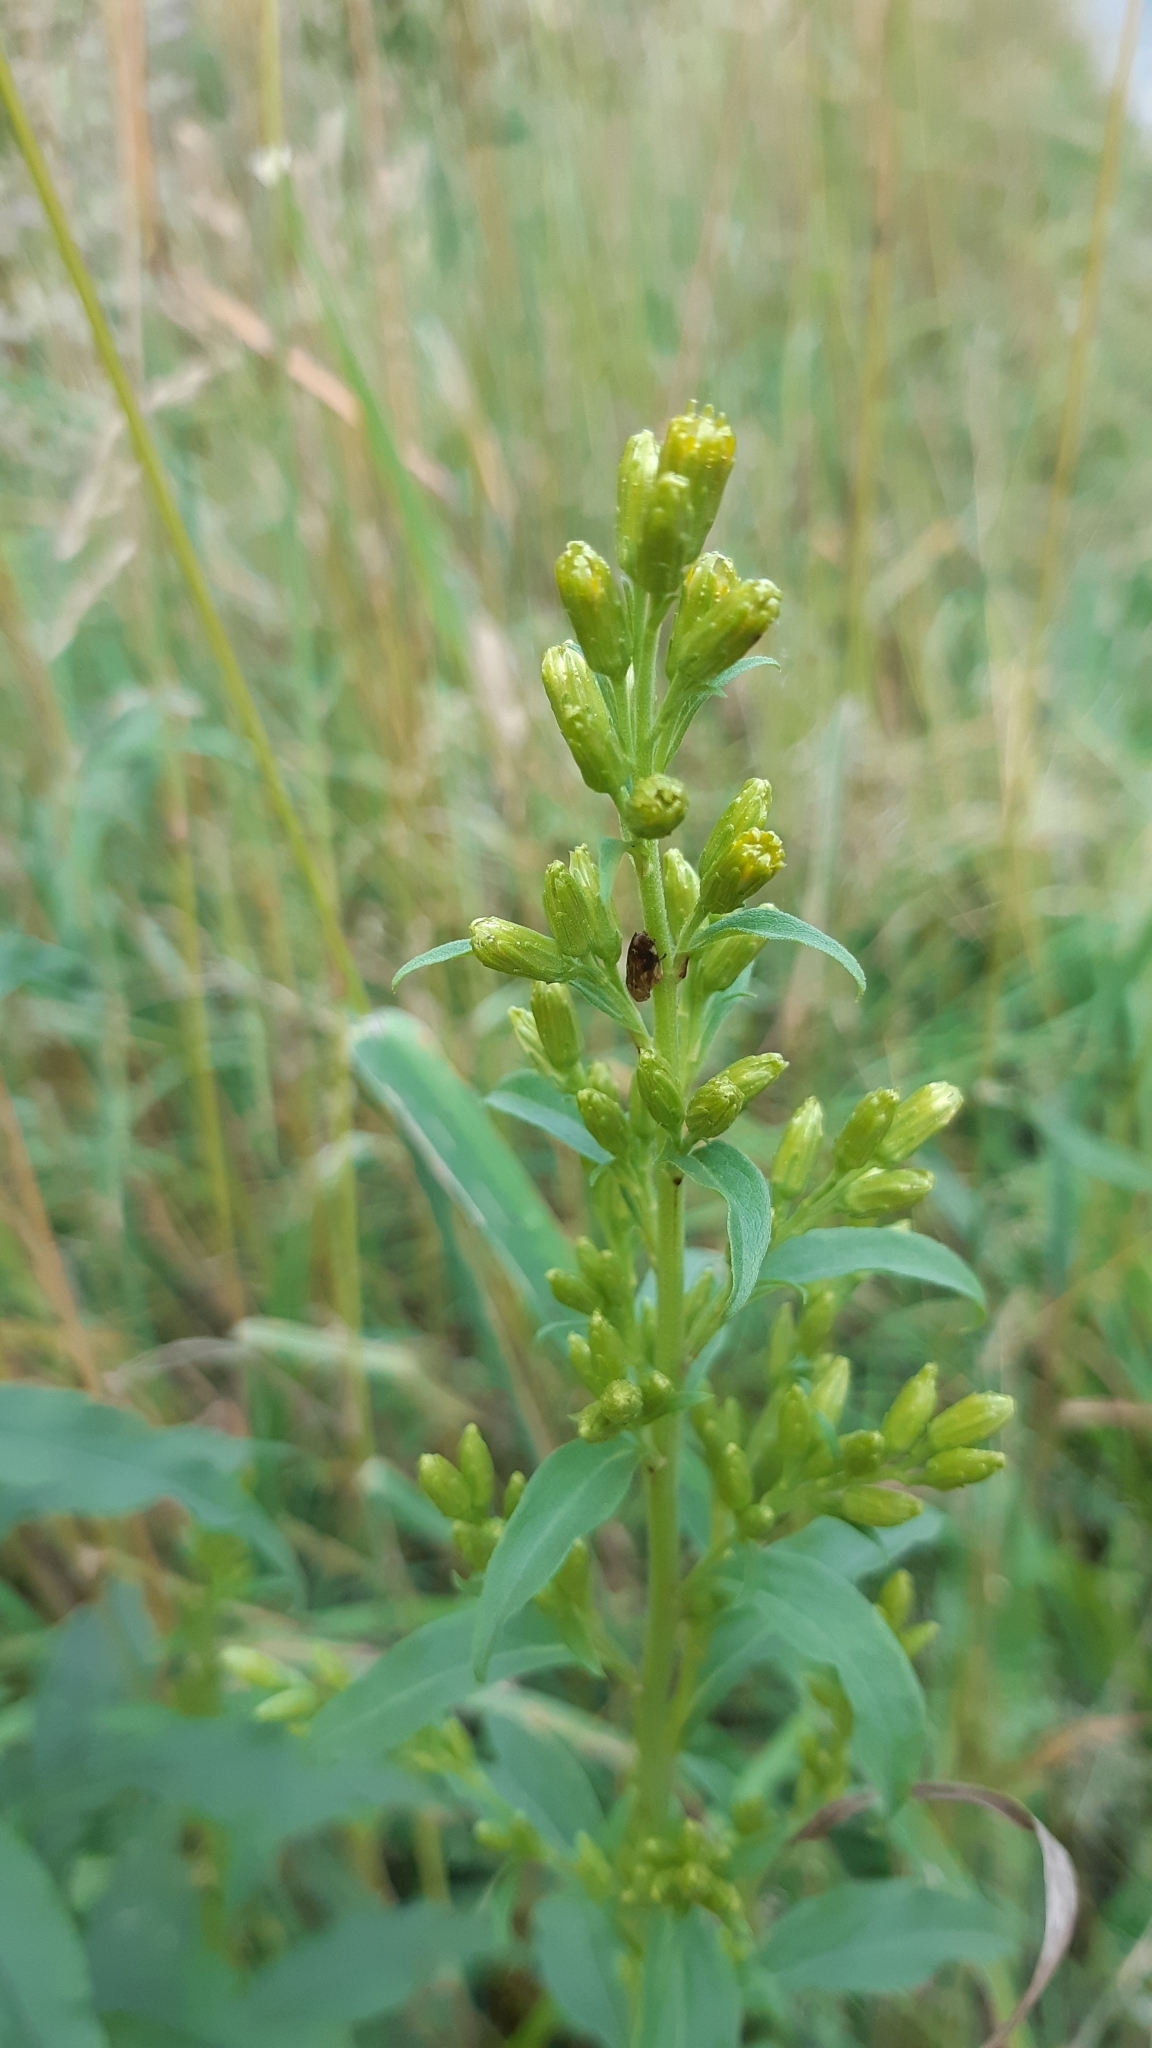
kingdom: Plantae
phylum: Tracheophyta
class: Magnoliopsida
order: Asterales
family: Asteraceae
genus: Solidago
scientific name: Solidago virgaurea
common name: Goldenrod
